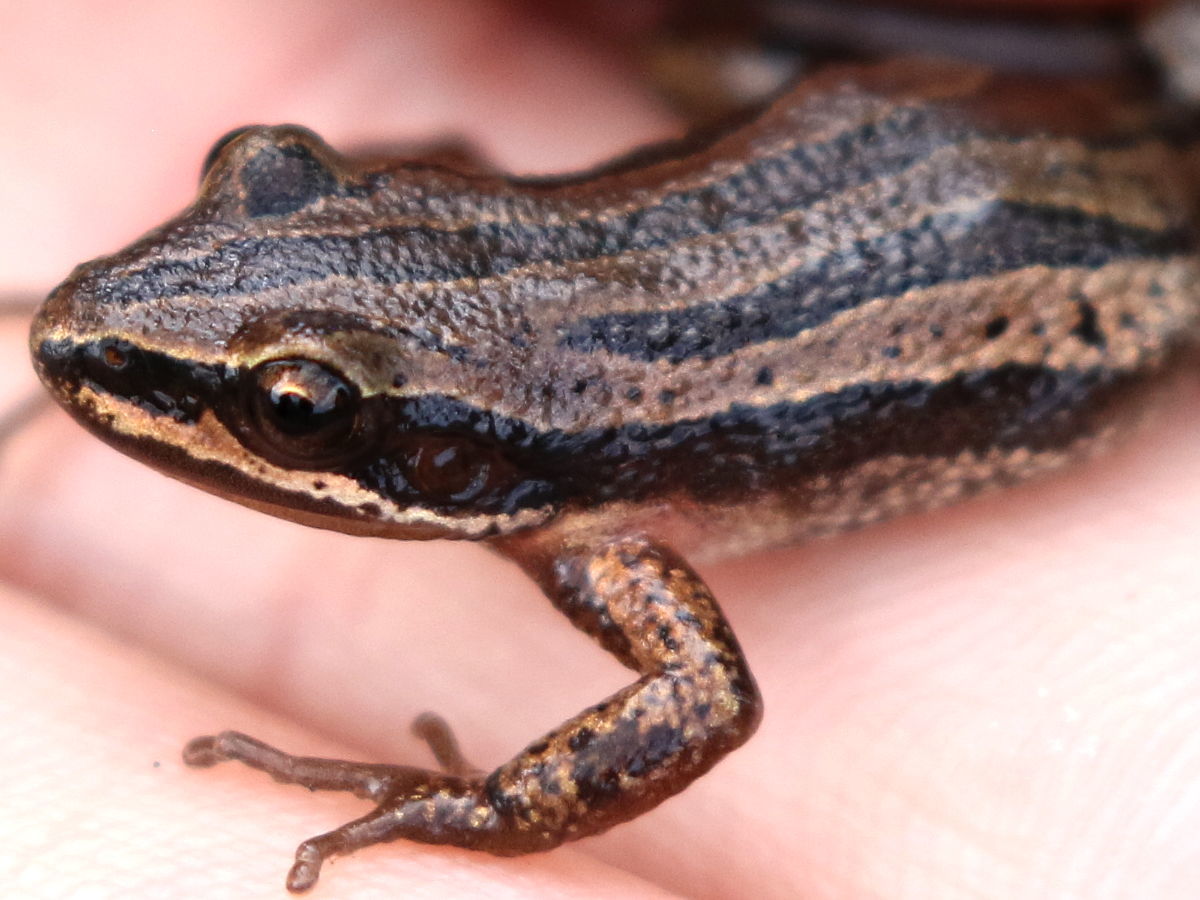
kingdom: Animalia
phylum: Chordata
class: Amphibia
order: Anura
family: Hylidae
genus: Pseudacris
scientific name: Pseudacris maculata
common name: Boreal chorus frog
